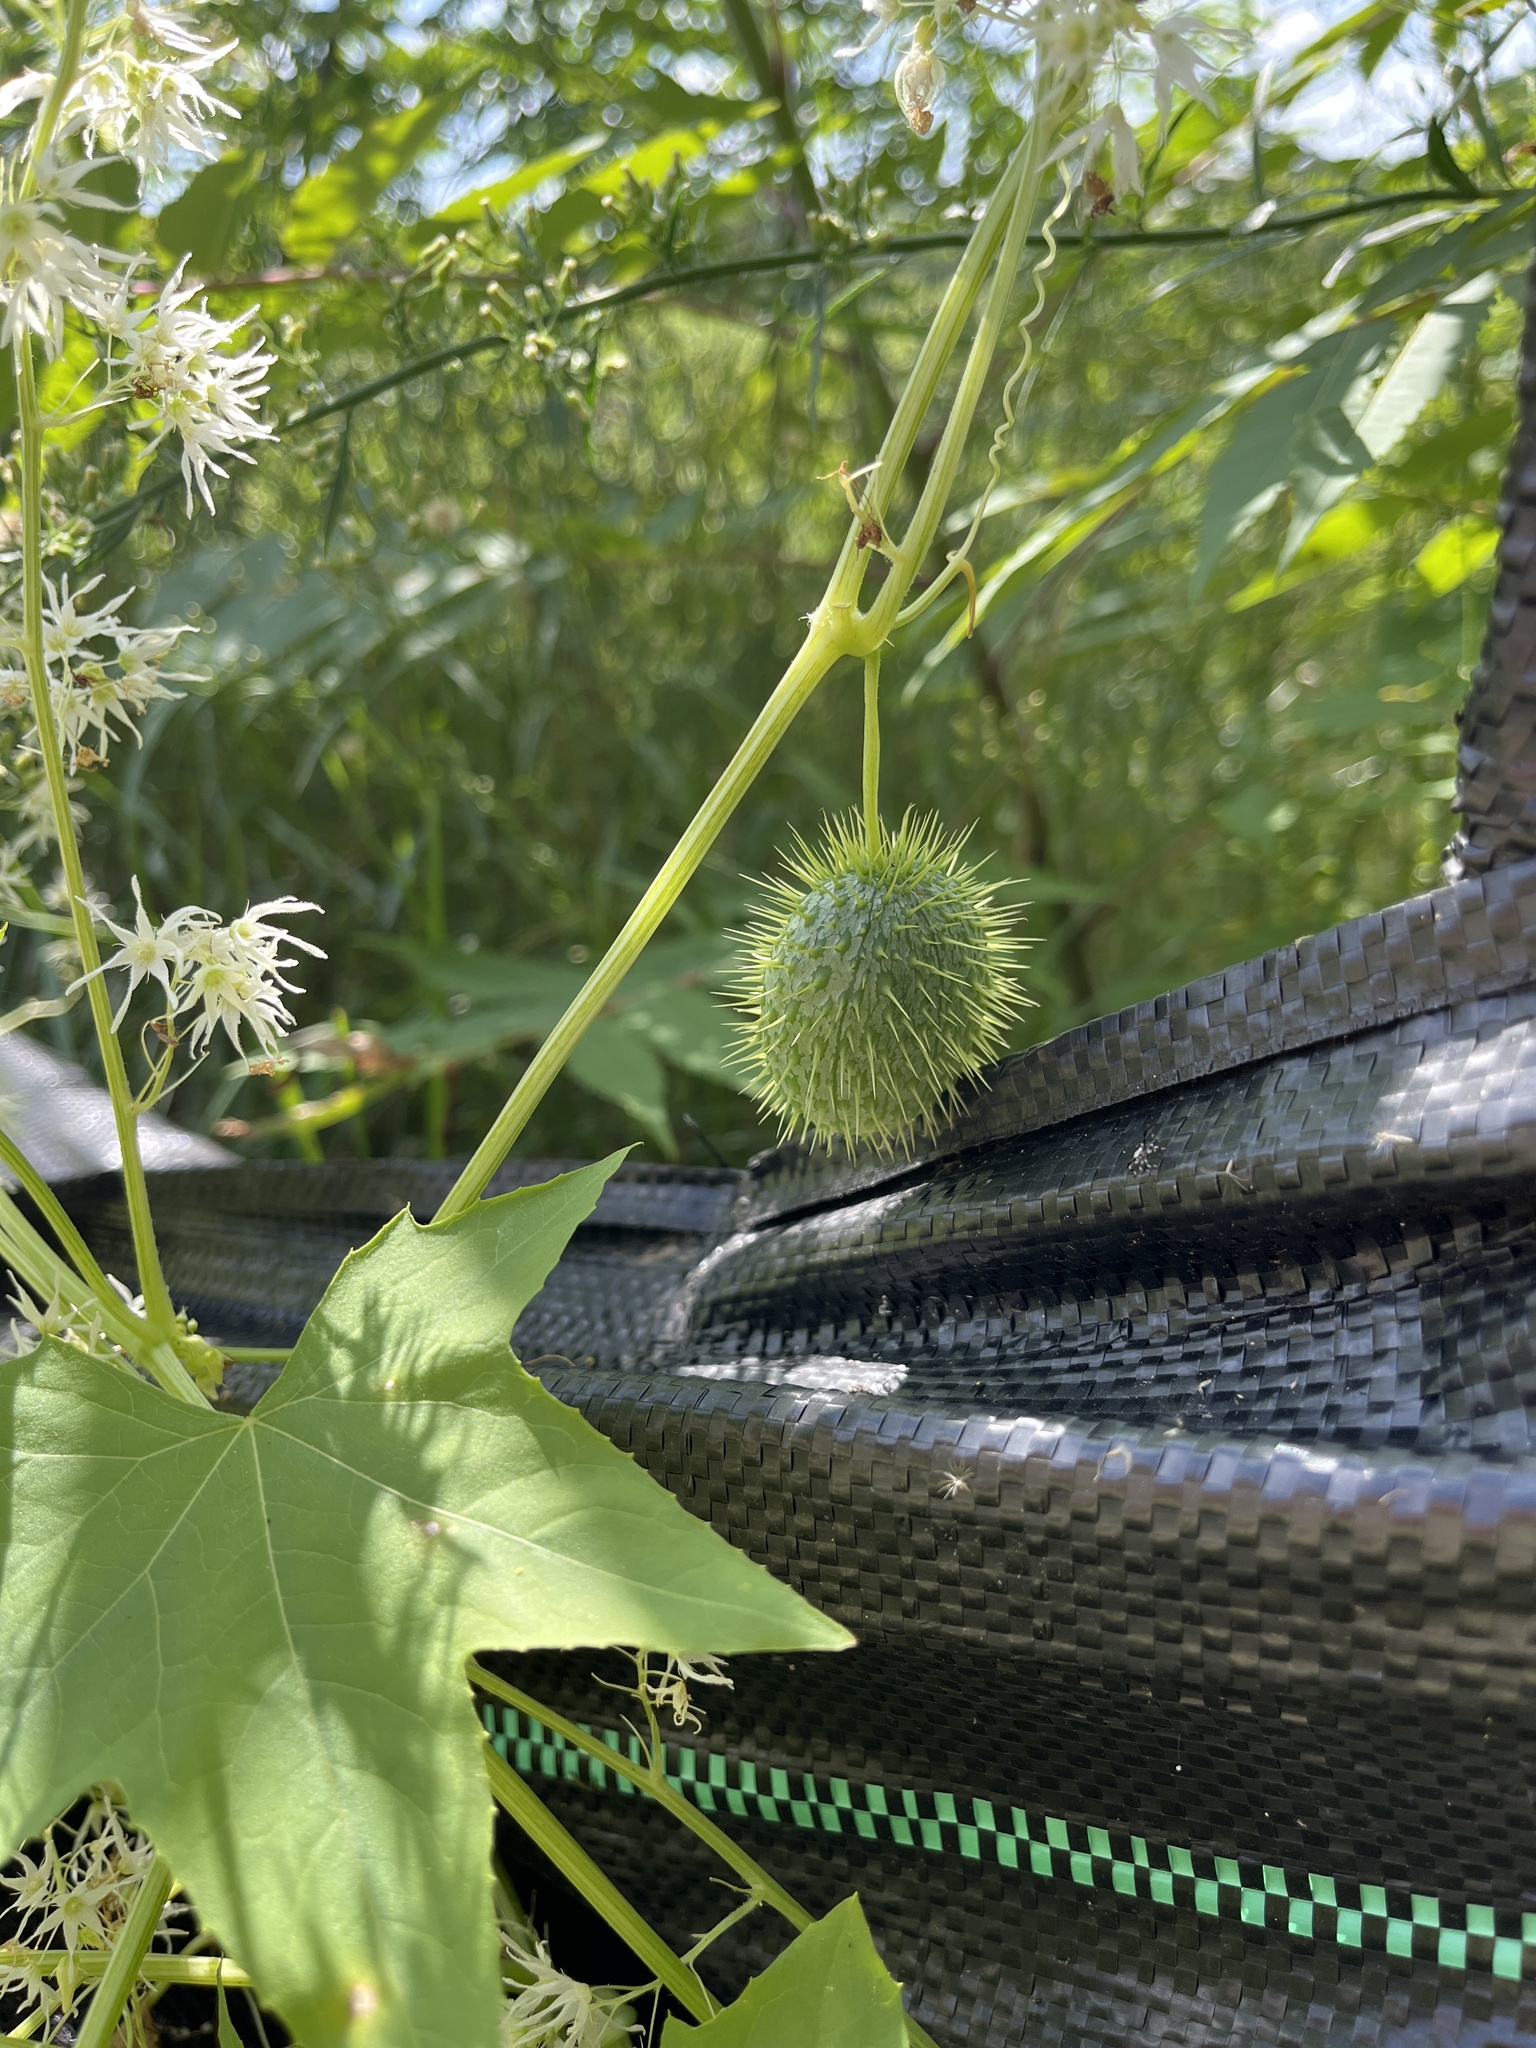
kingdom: Plantae
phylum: Tracheophyta
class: Magnoliopsida
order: Cucurbitales
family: Cucurbitaceae
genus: Echinocystis
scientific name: Echinocystis lobata
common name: Wild cucumber
